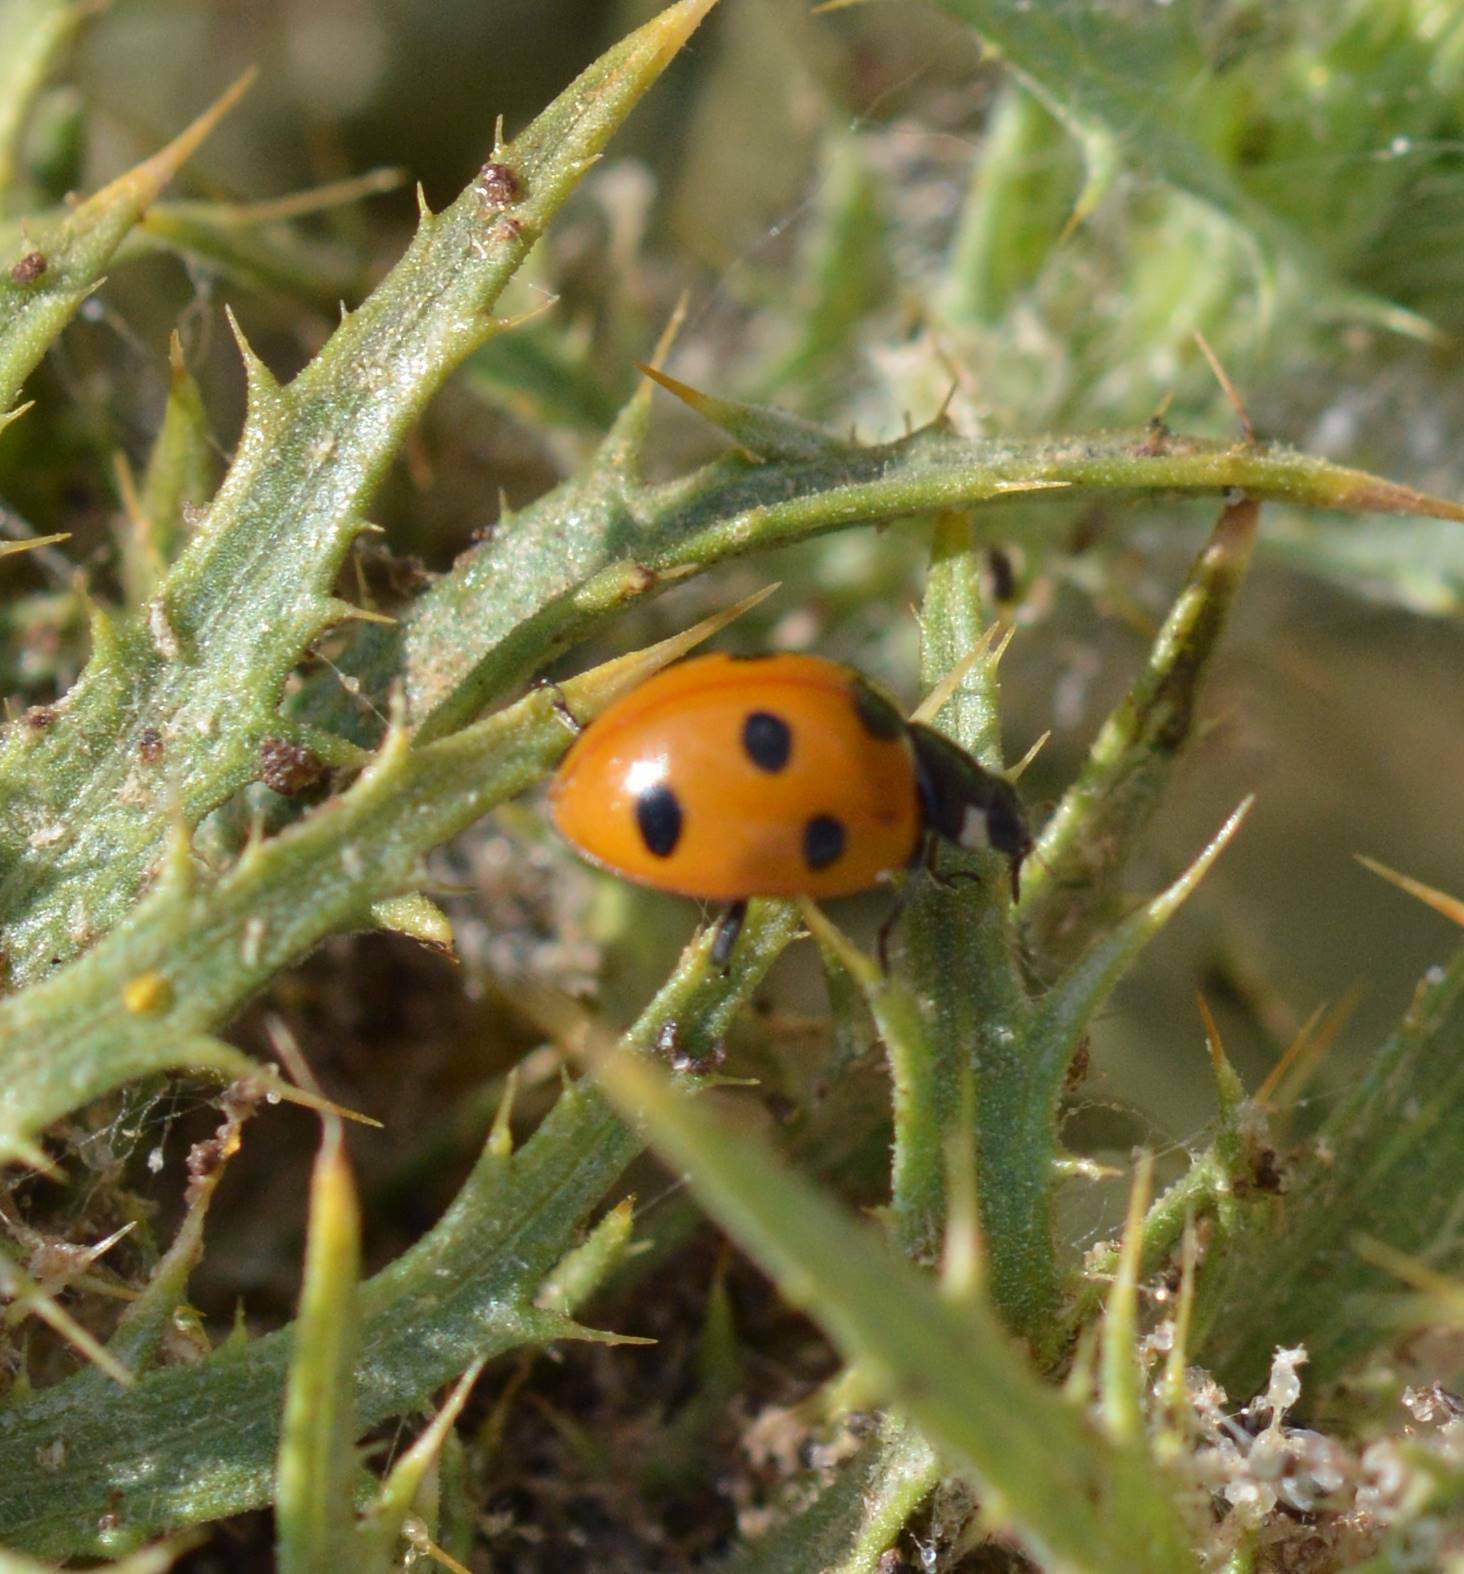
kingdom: Animalia
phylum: Arthropoda
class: Insecta
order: Coleoptera
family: Coccinellidae
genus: Coccinella
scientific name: Coccinella algerica
